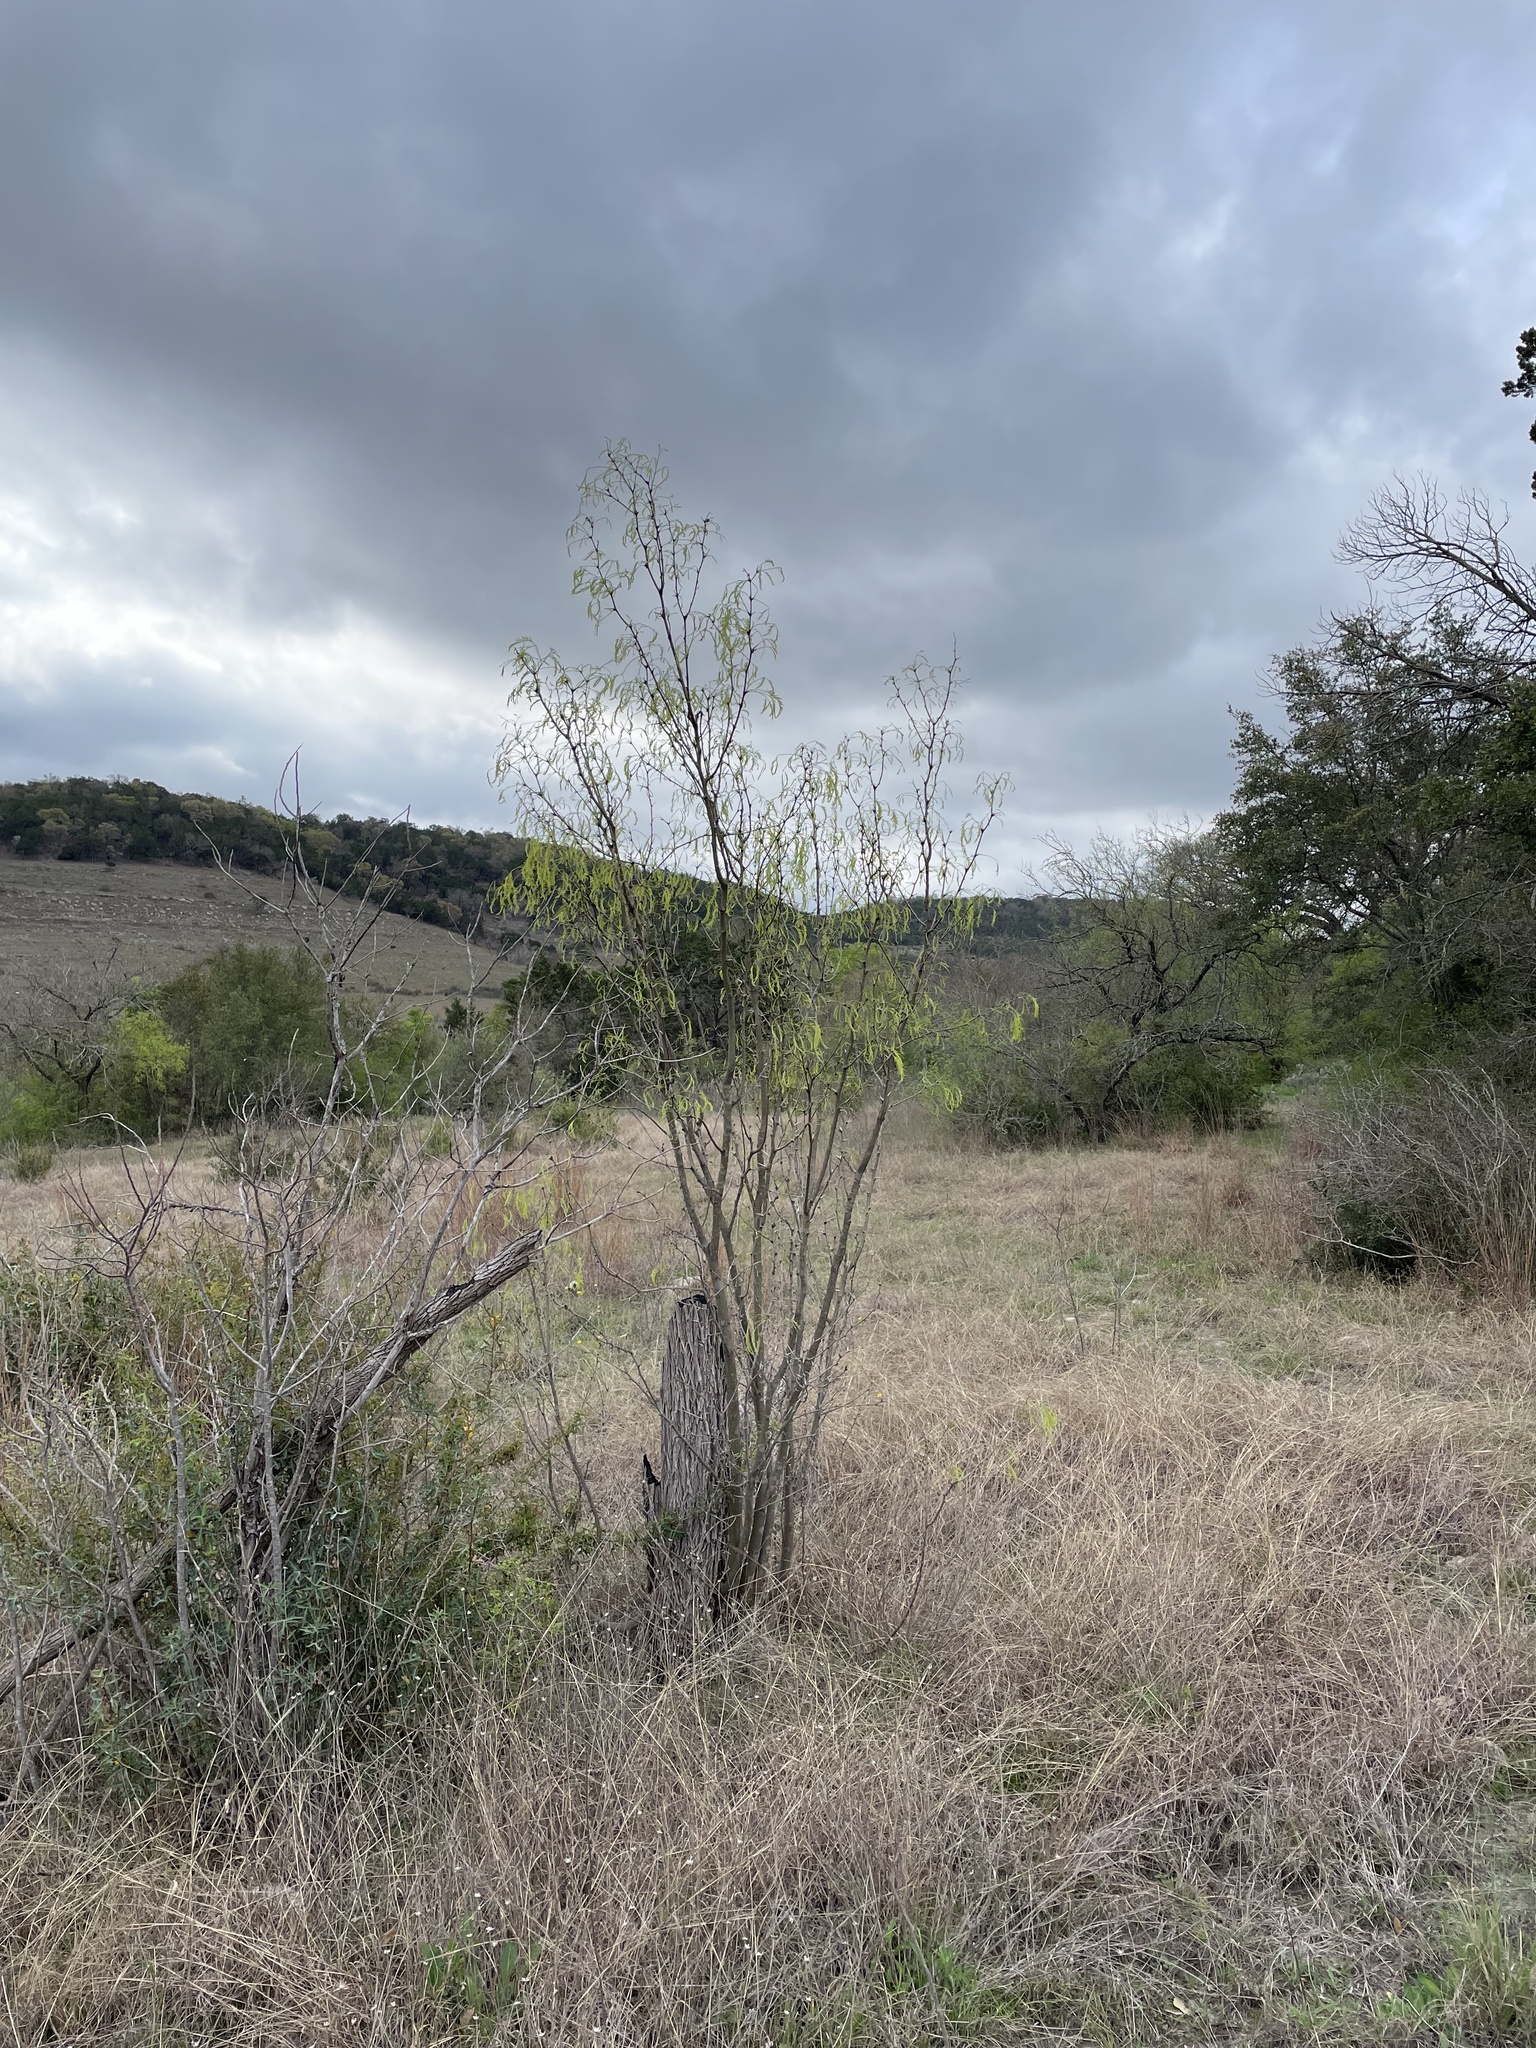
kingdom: Plantae
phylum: Tracheophyta
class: Magnoliopsida
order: Fabales
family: Fabaceae
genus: Prosopis
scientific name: Prosopis glandulosa
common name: Honey mesquite
